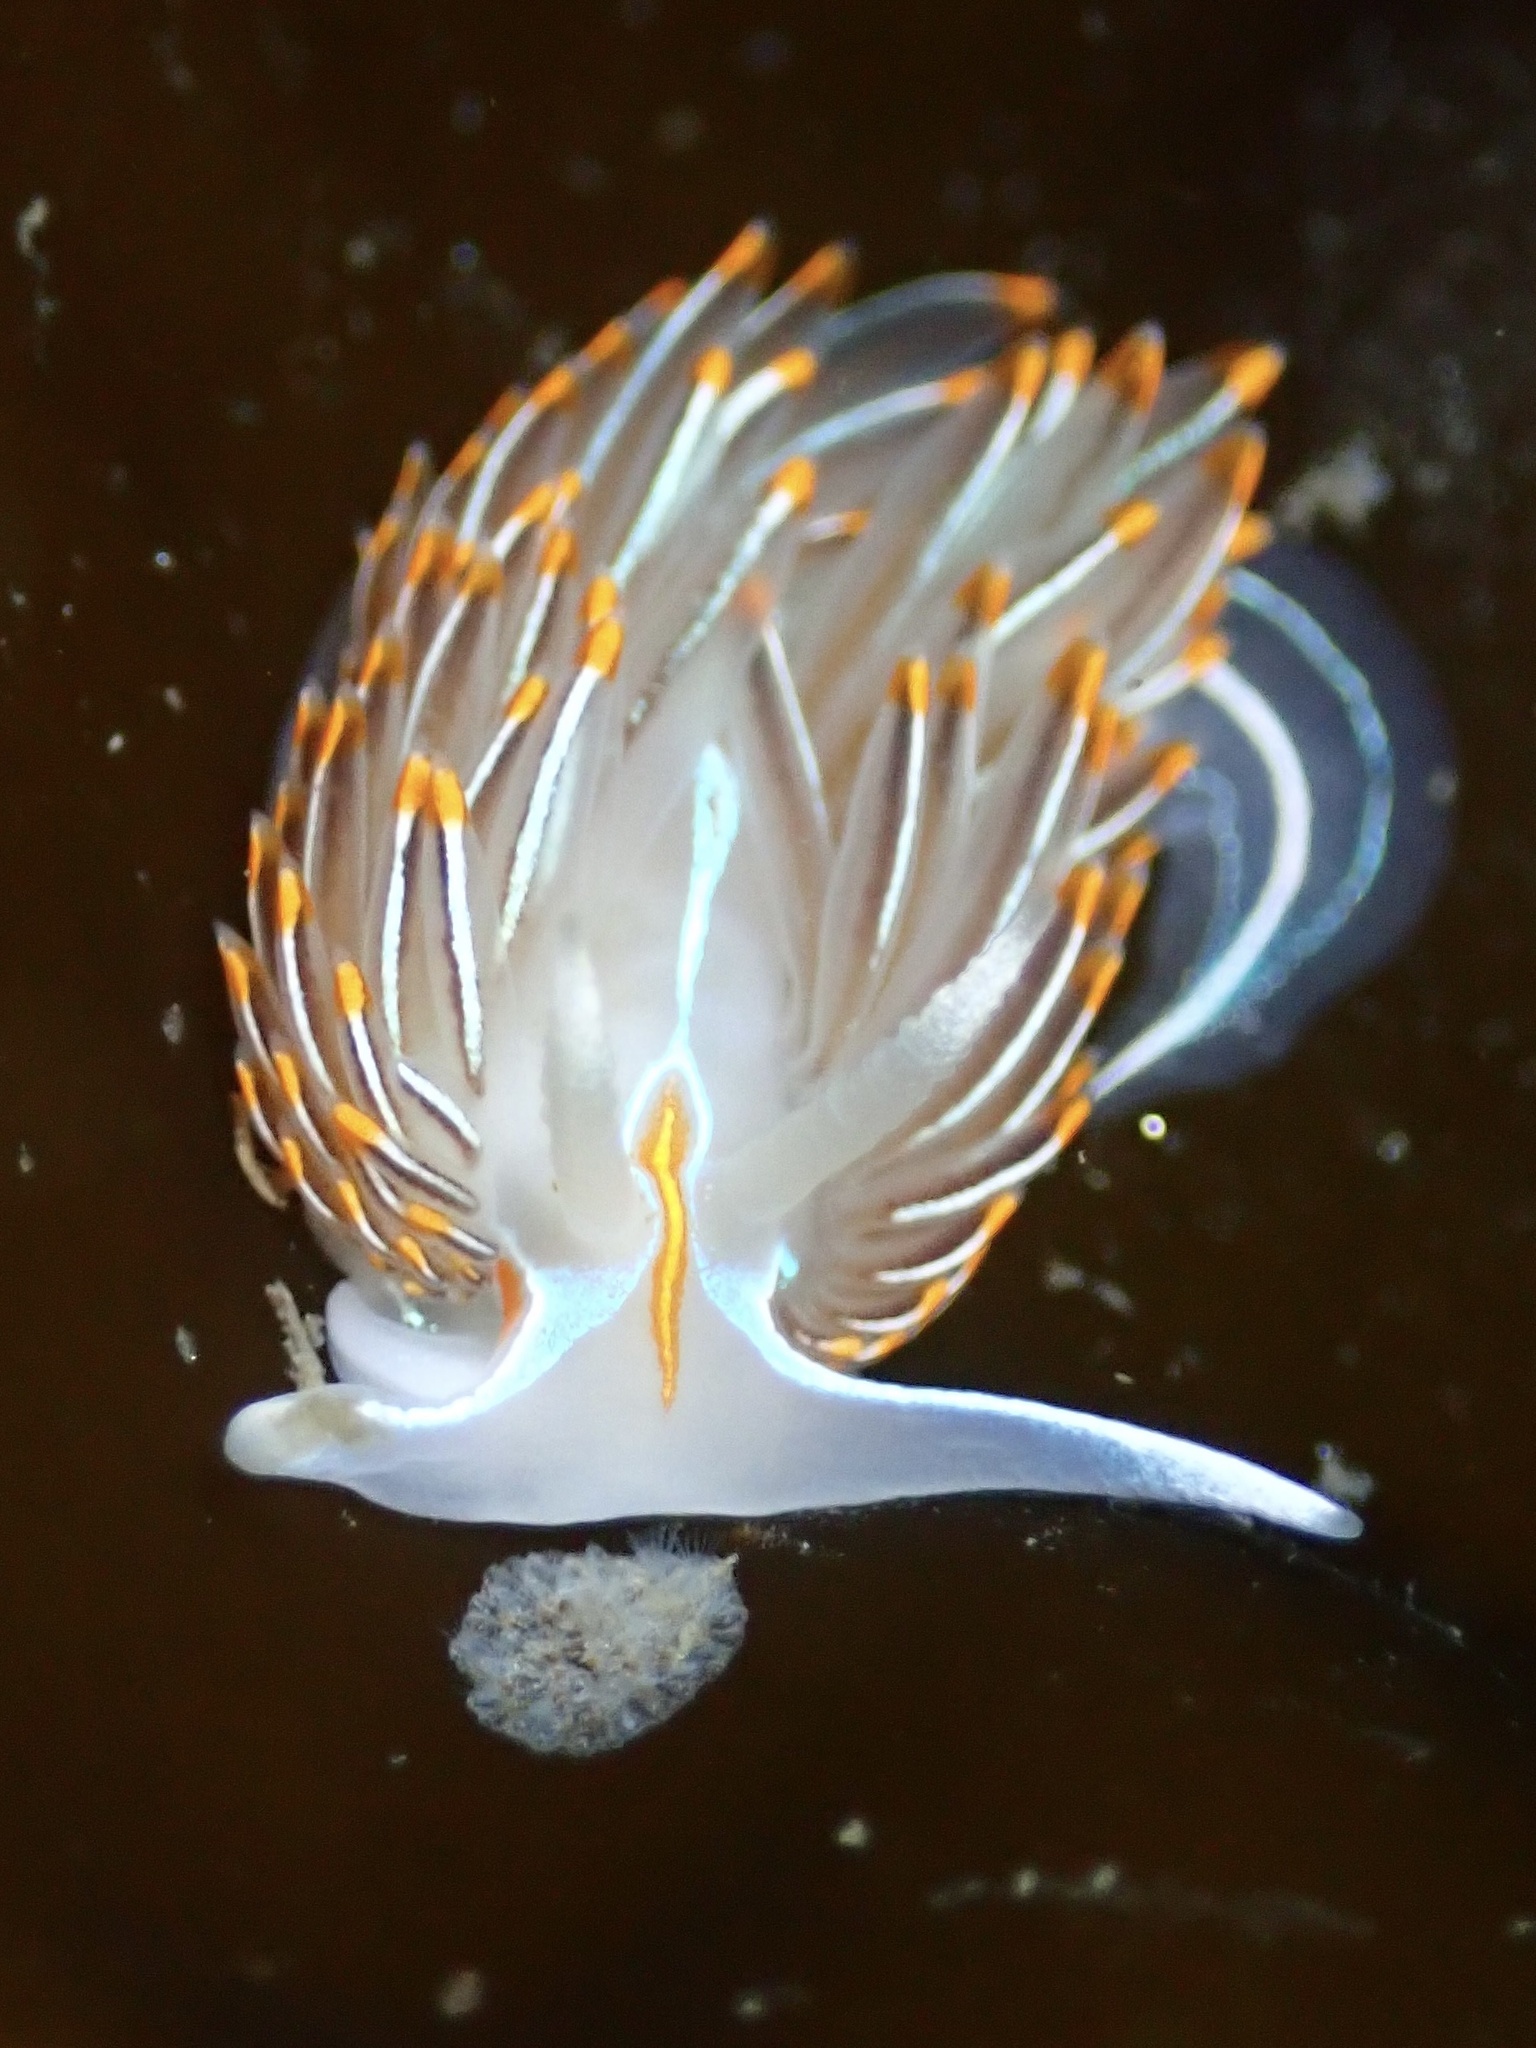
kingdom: Animalia
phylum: Mollusca
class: Gastropoda
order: Nudibranchia
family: Myrrhinidae
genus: Hermissenda
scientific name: Hermissenda crassicornis
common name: Hermissenda
